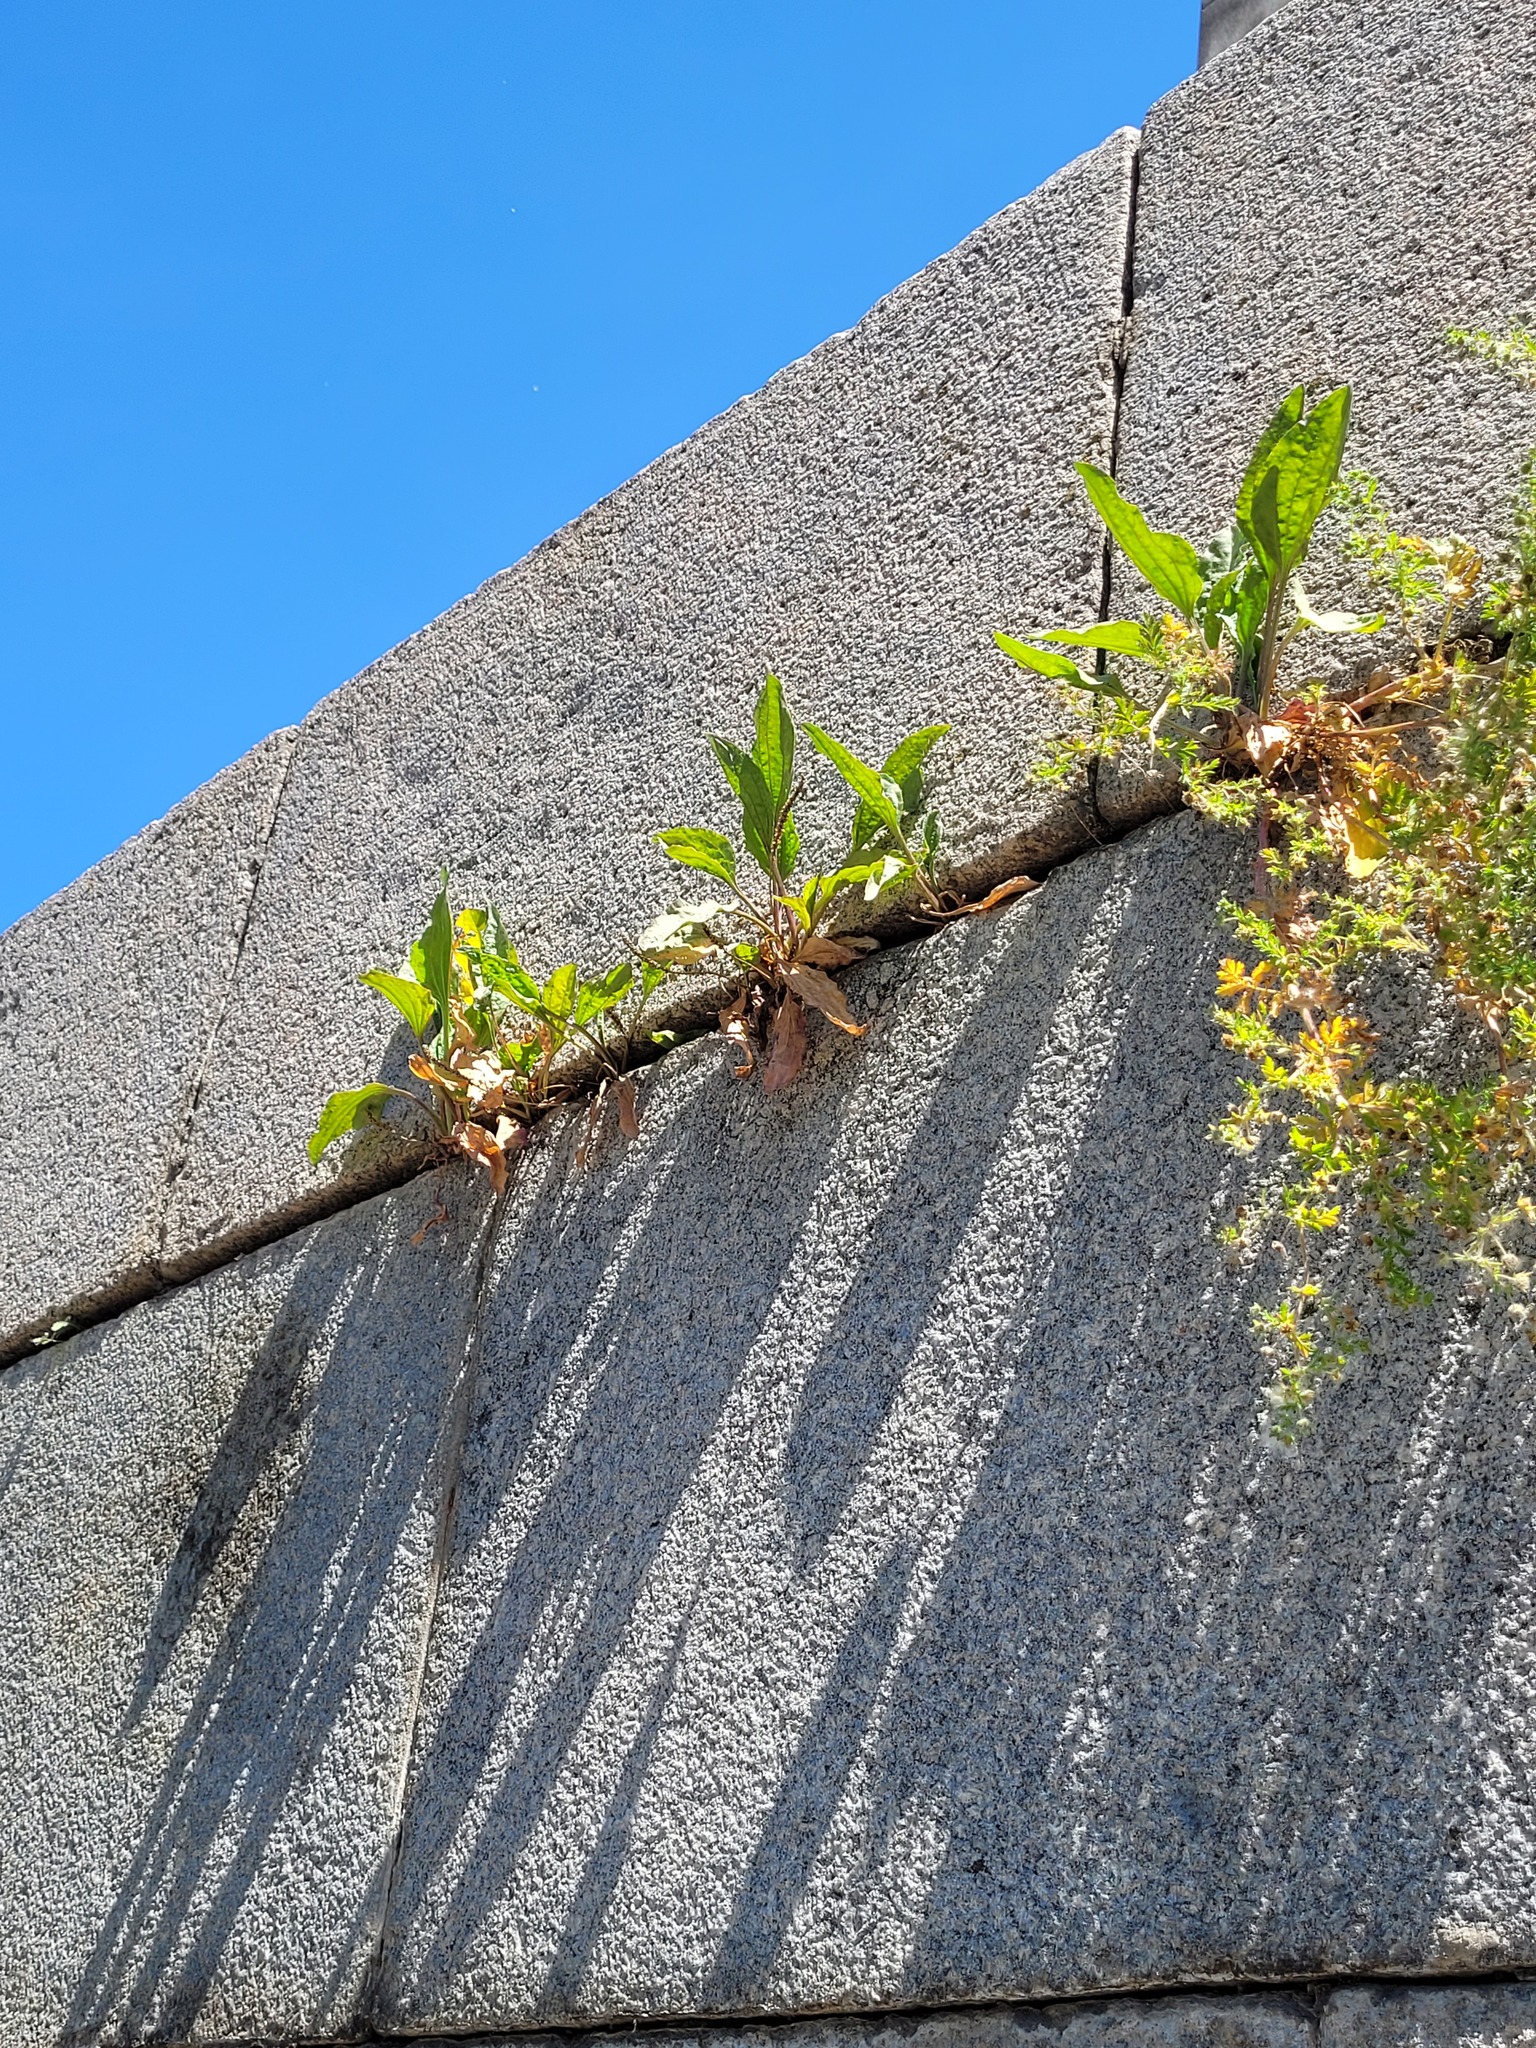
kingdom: Plantae
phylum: Tracheophyta
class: Magnoliopsida
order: Lamiales
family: Plantaginaceae
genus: Plantago
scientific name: Plantago major
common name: Common plantain
